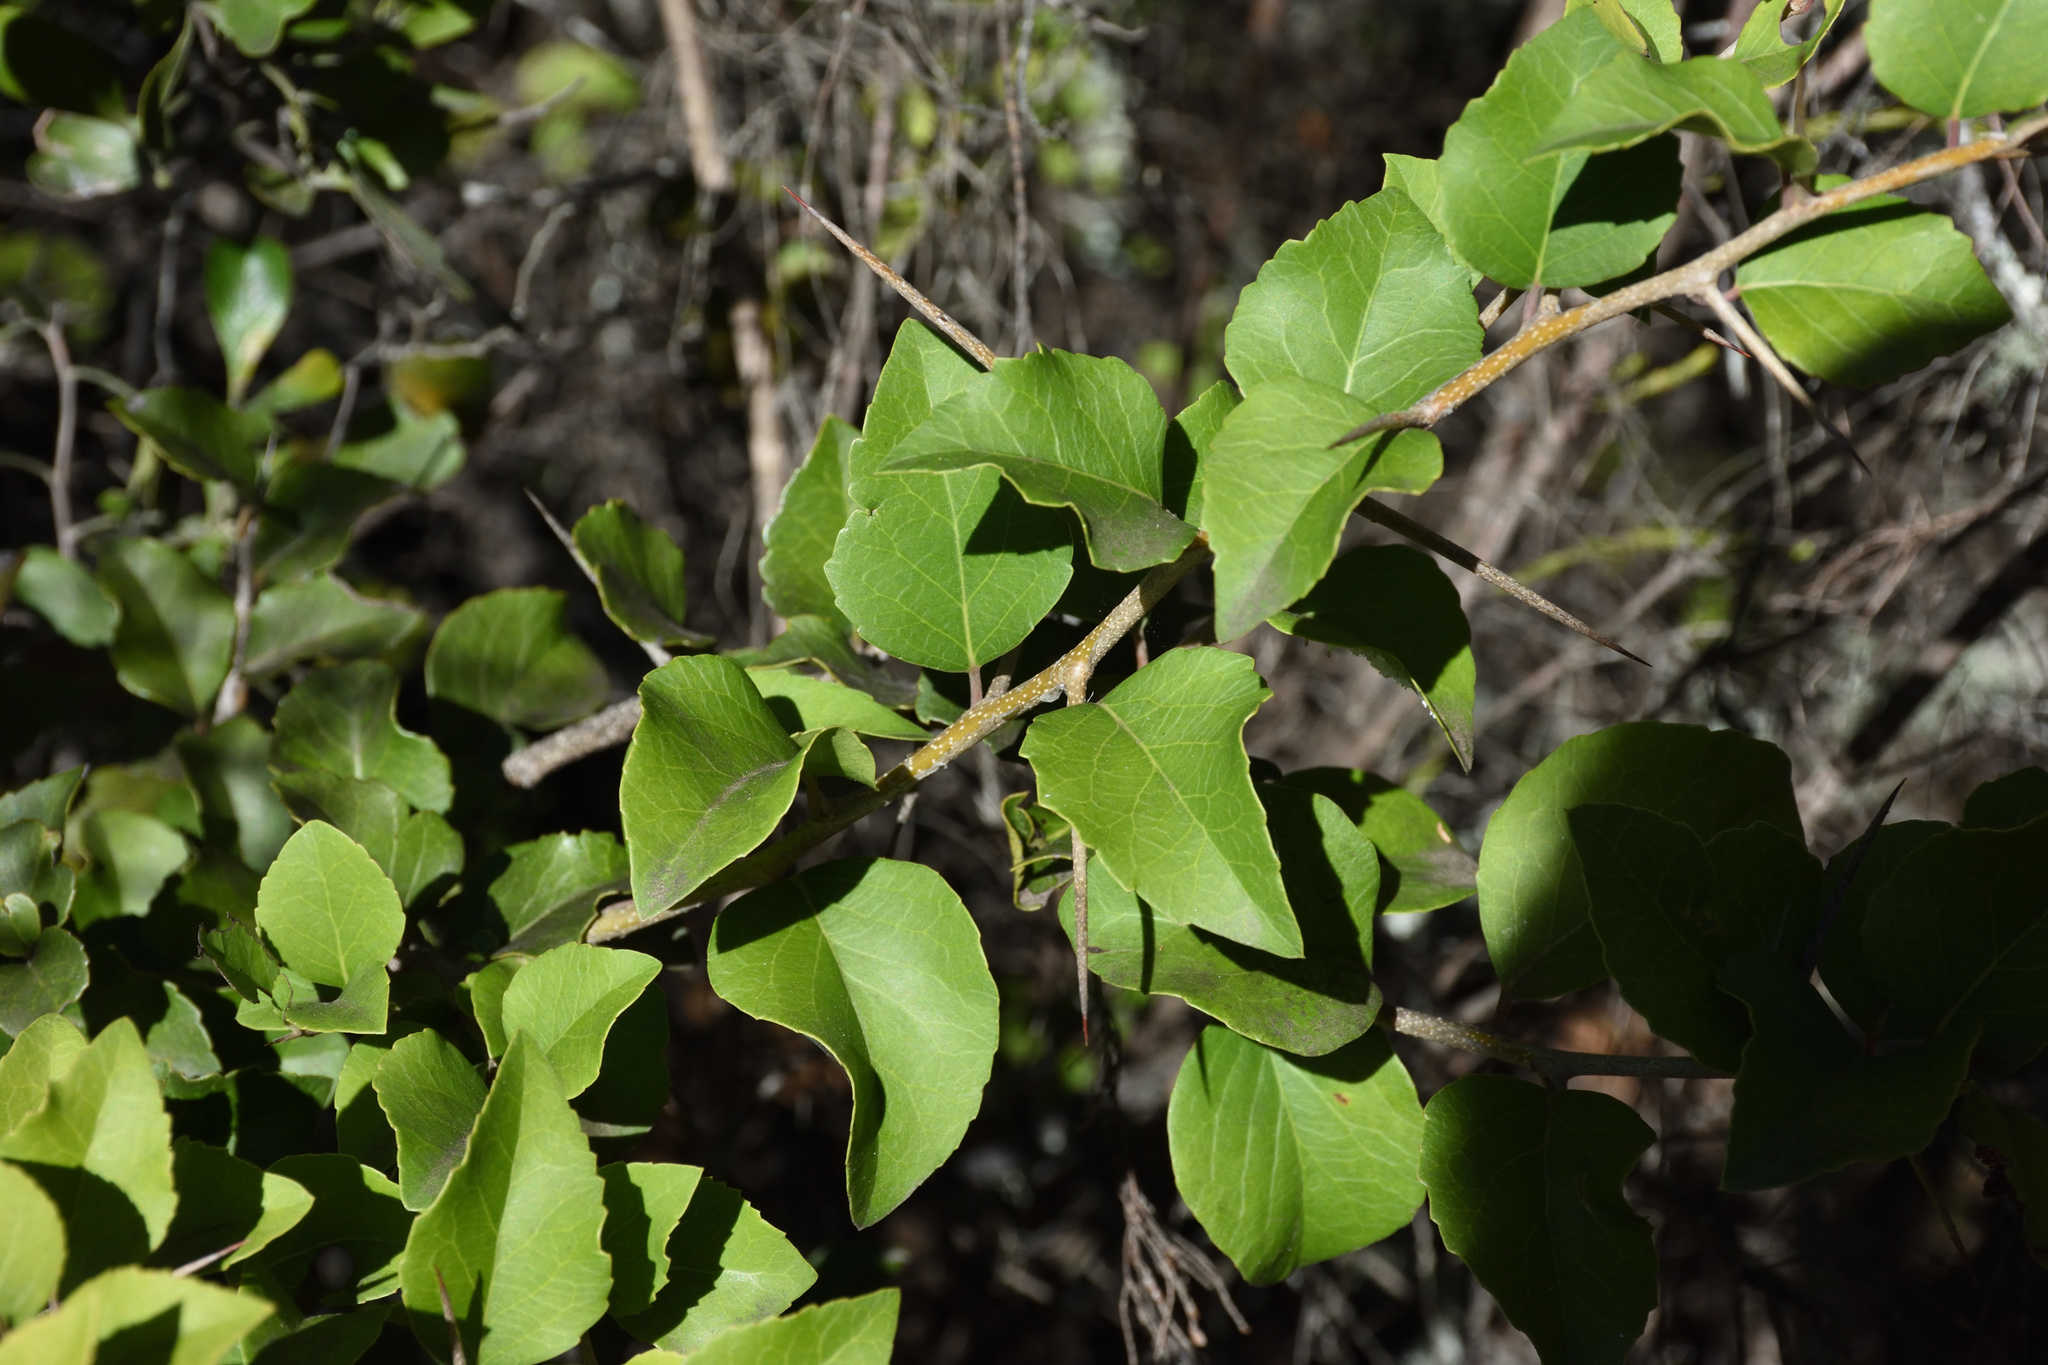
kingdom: Plantae
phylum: Tracheophyta
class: Magnoliopsida
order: Malpighiales
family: Salicaceae
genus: Scolopia
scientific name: Scolopia zeyheri
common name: Thorn pear
